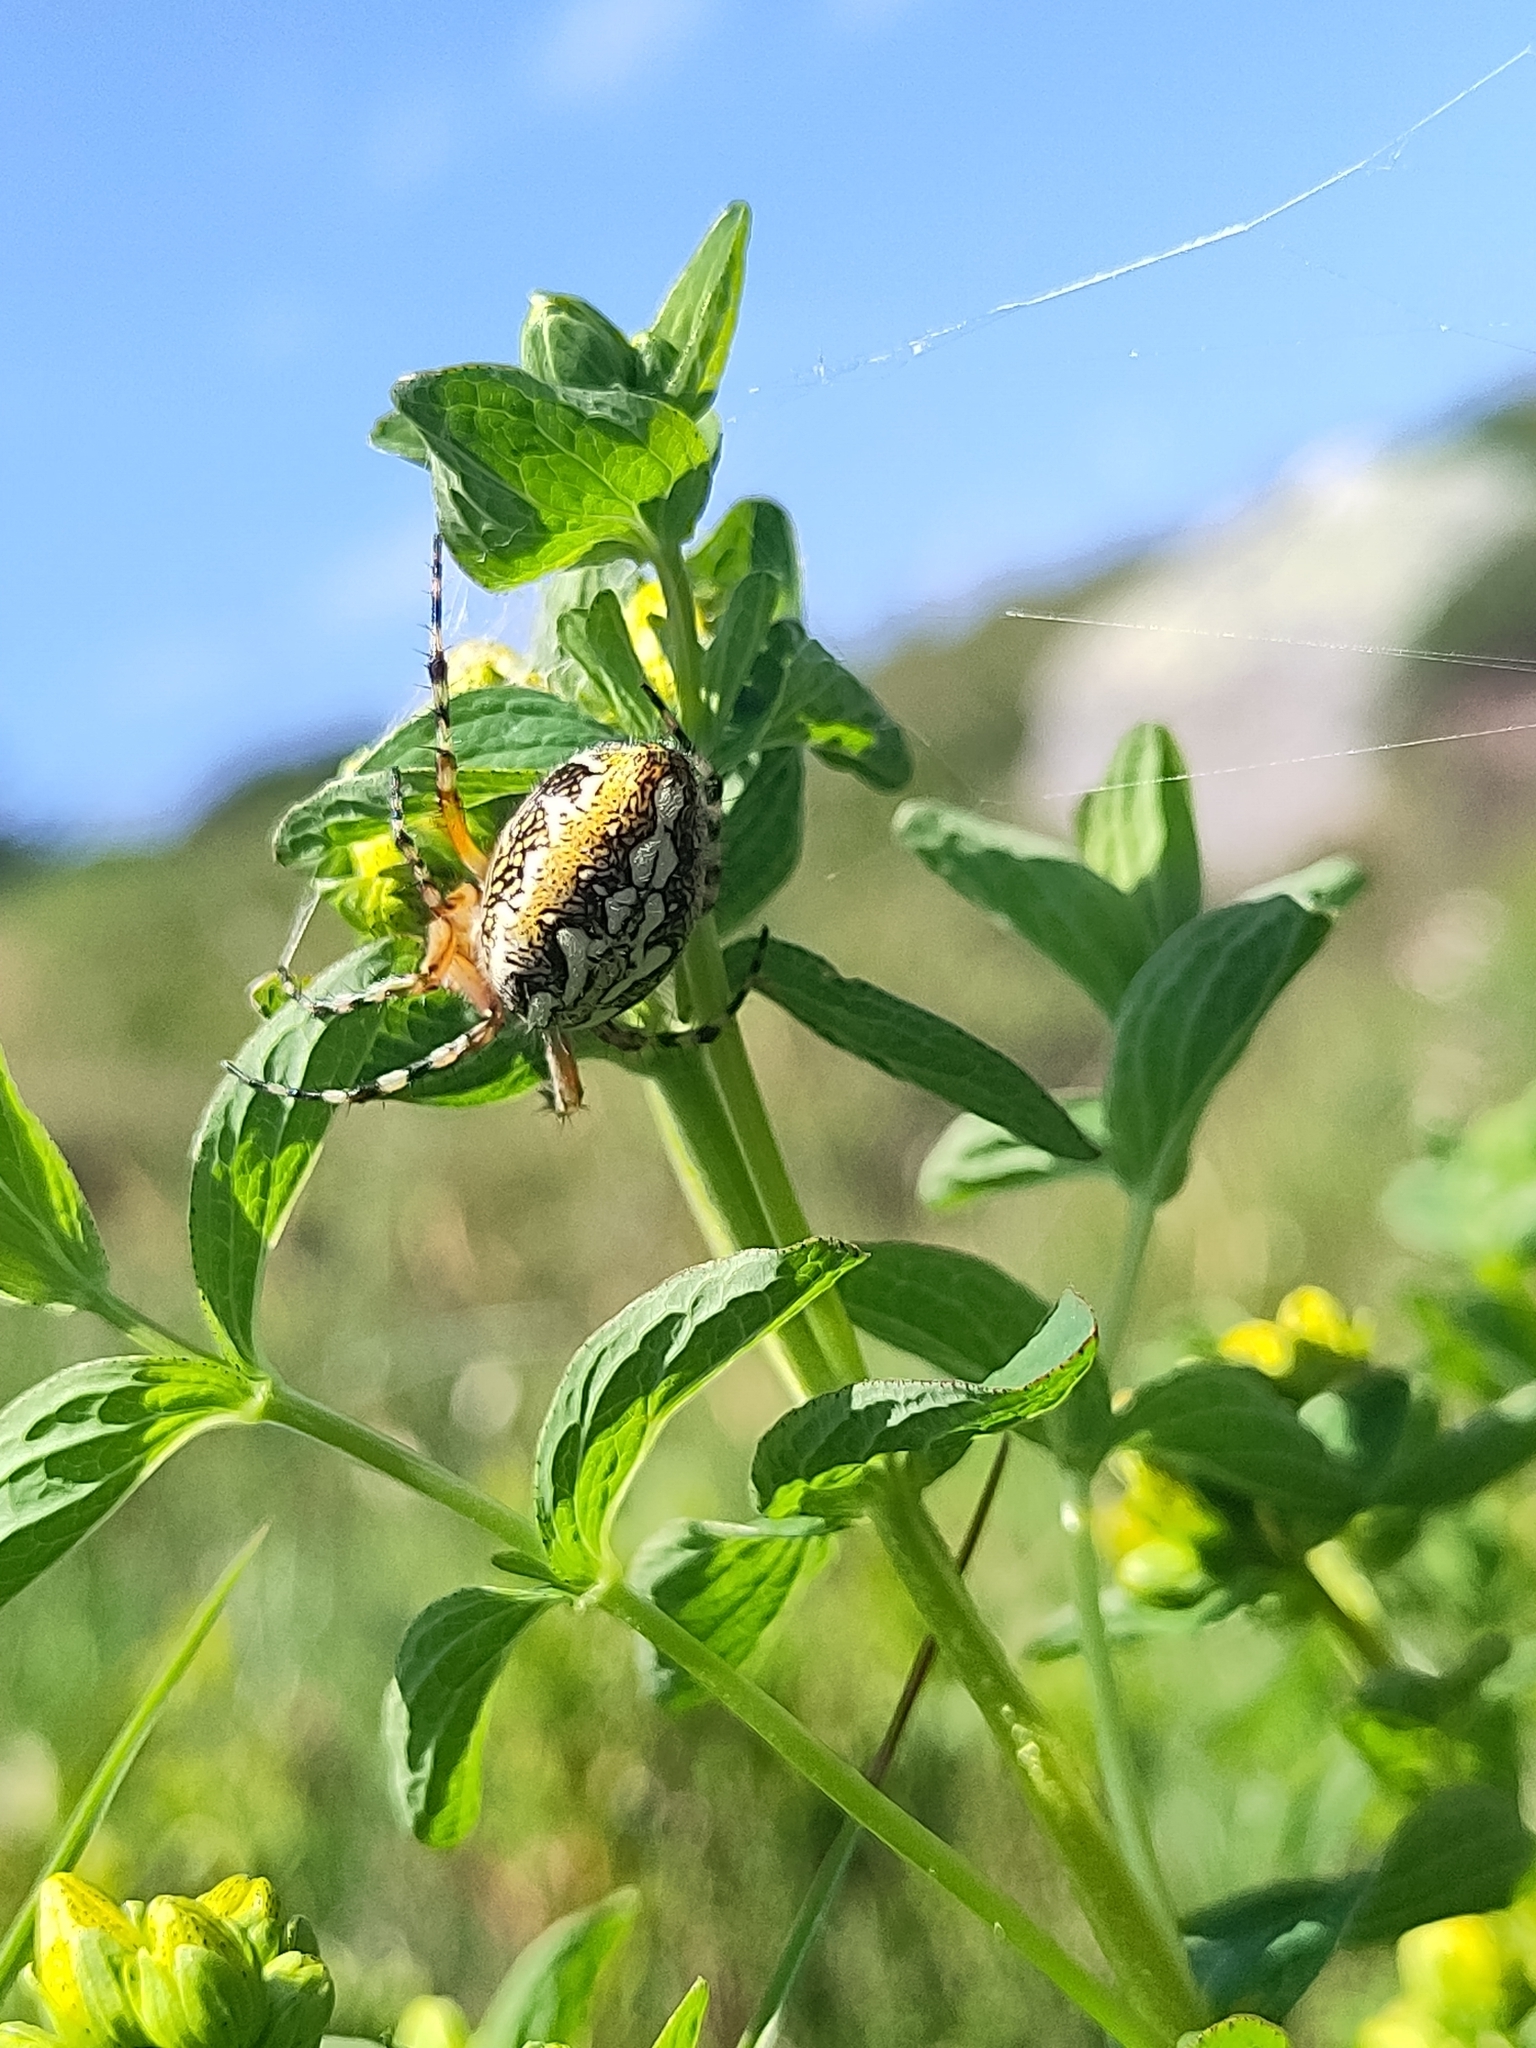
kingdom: Animalia
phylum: Arthropoda
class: Arachnida
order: Araneae
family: Araneidae
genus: Aculepeira
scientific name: Aculepeira ceropegia
